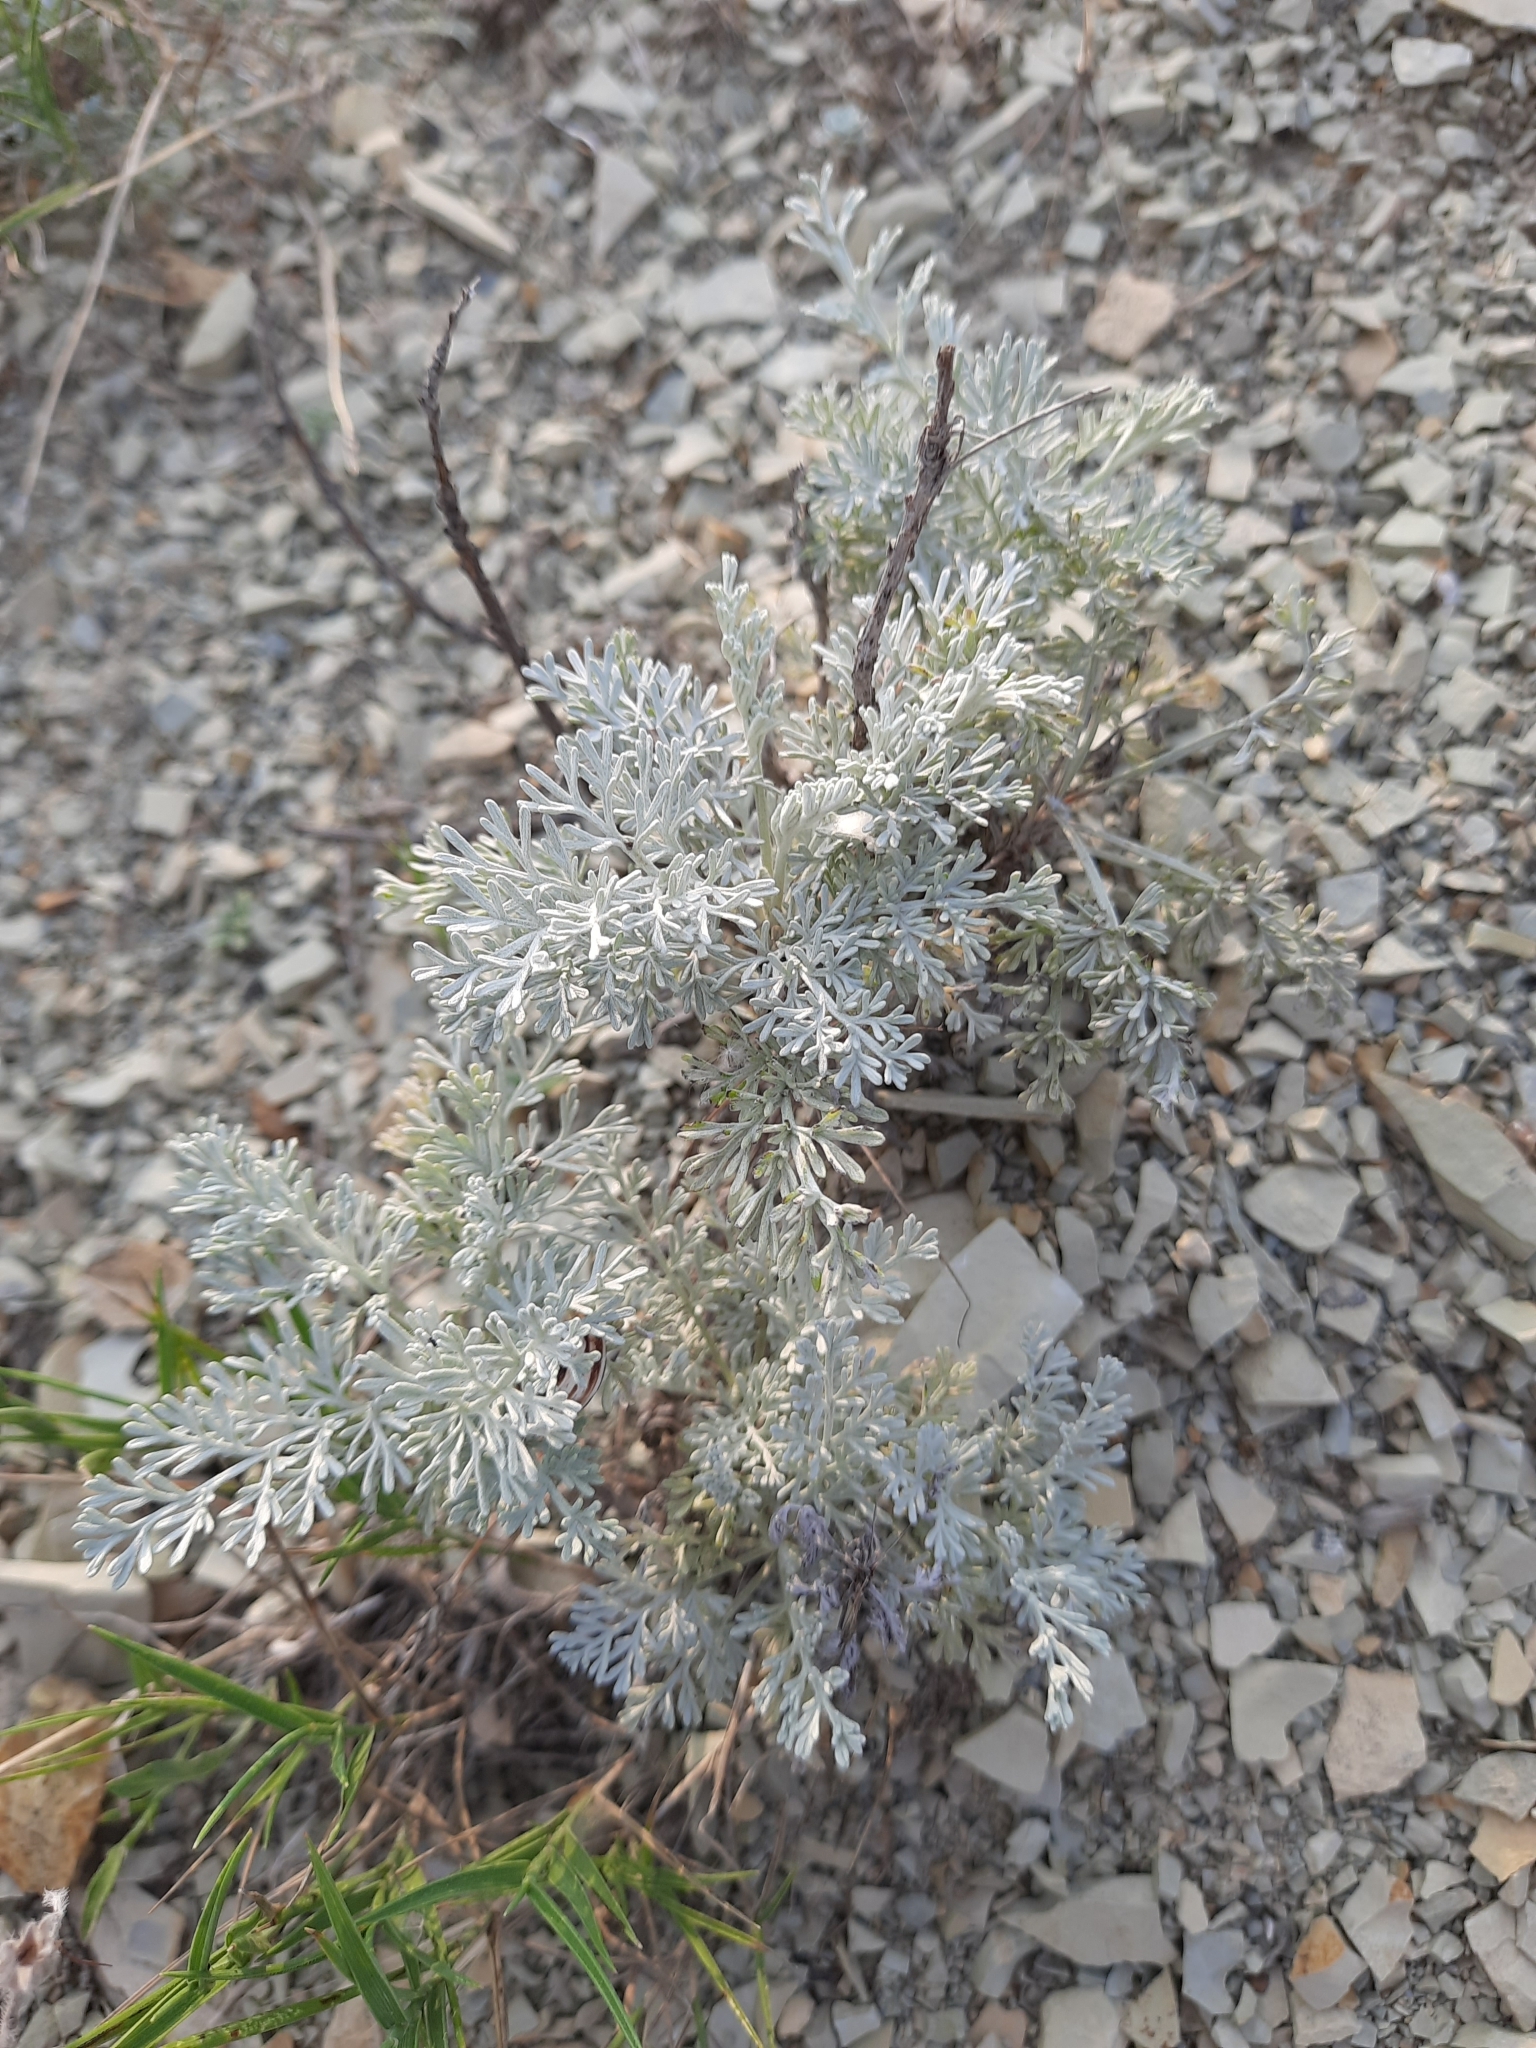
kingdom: Plantae
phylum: Tracheophyta
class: Magnoliopsida
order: Apiales
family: Apiaceae
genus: Seseli
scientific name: Seseli ponticum
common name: Pontic seseli
